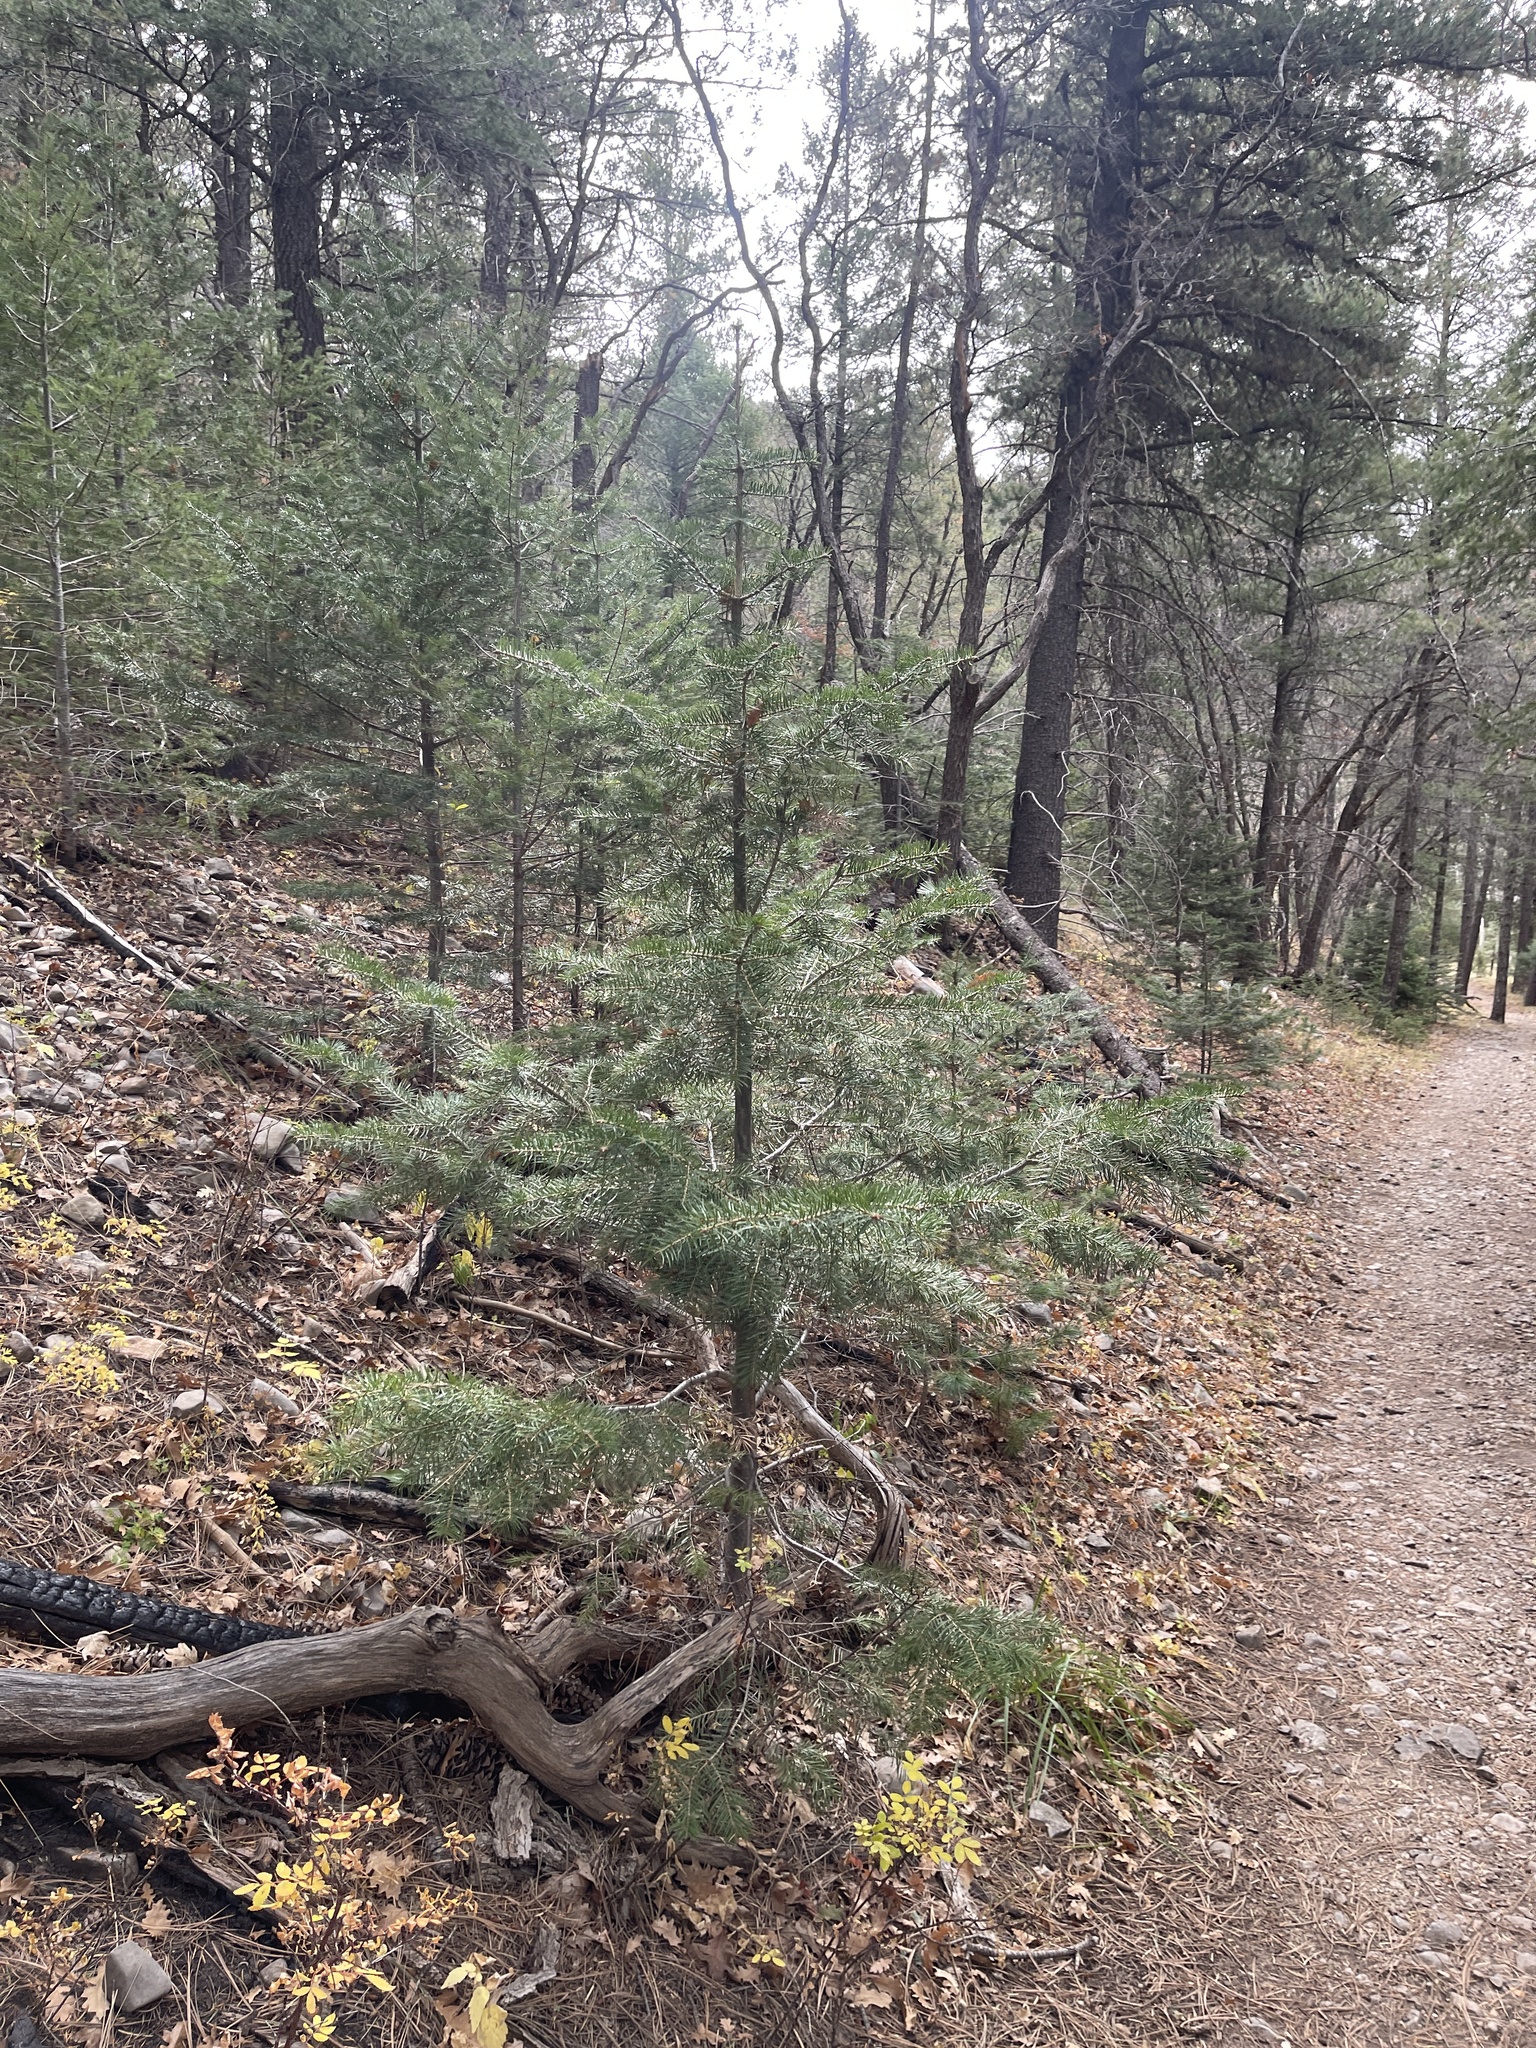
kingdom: Plantae
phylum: Tracheophyta
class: Pinopsida
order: Pinales
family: Pinaceae
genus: Abies
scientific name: Abies concolor
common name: Colorado fir
